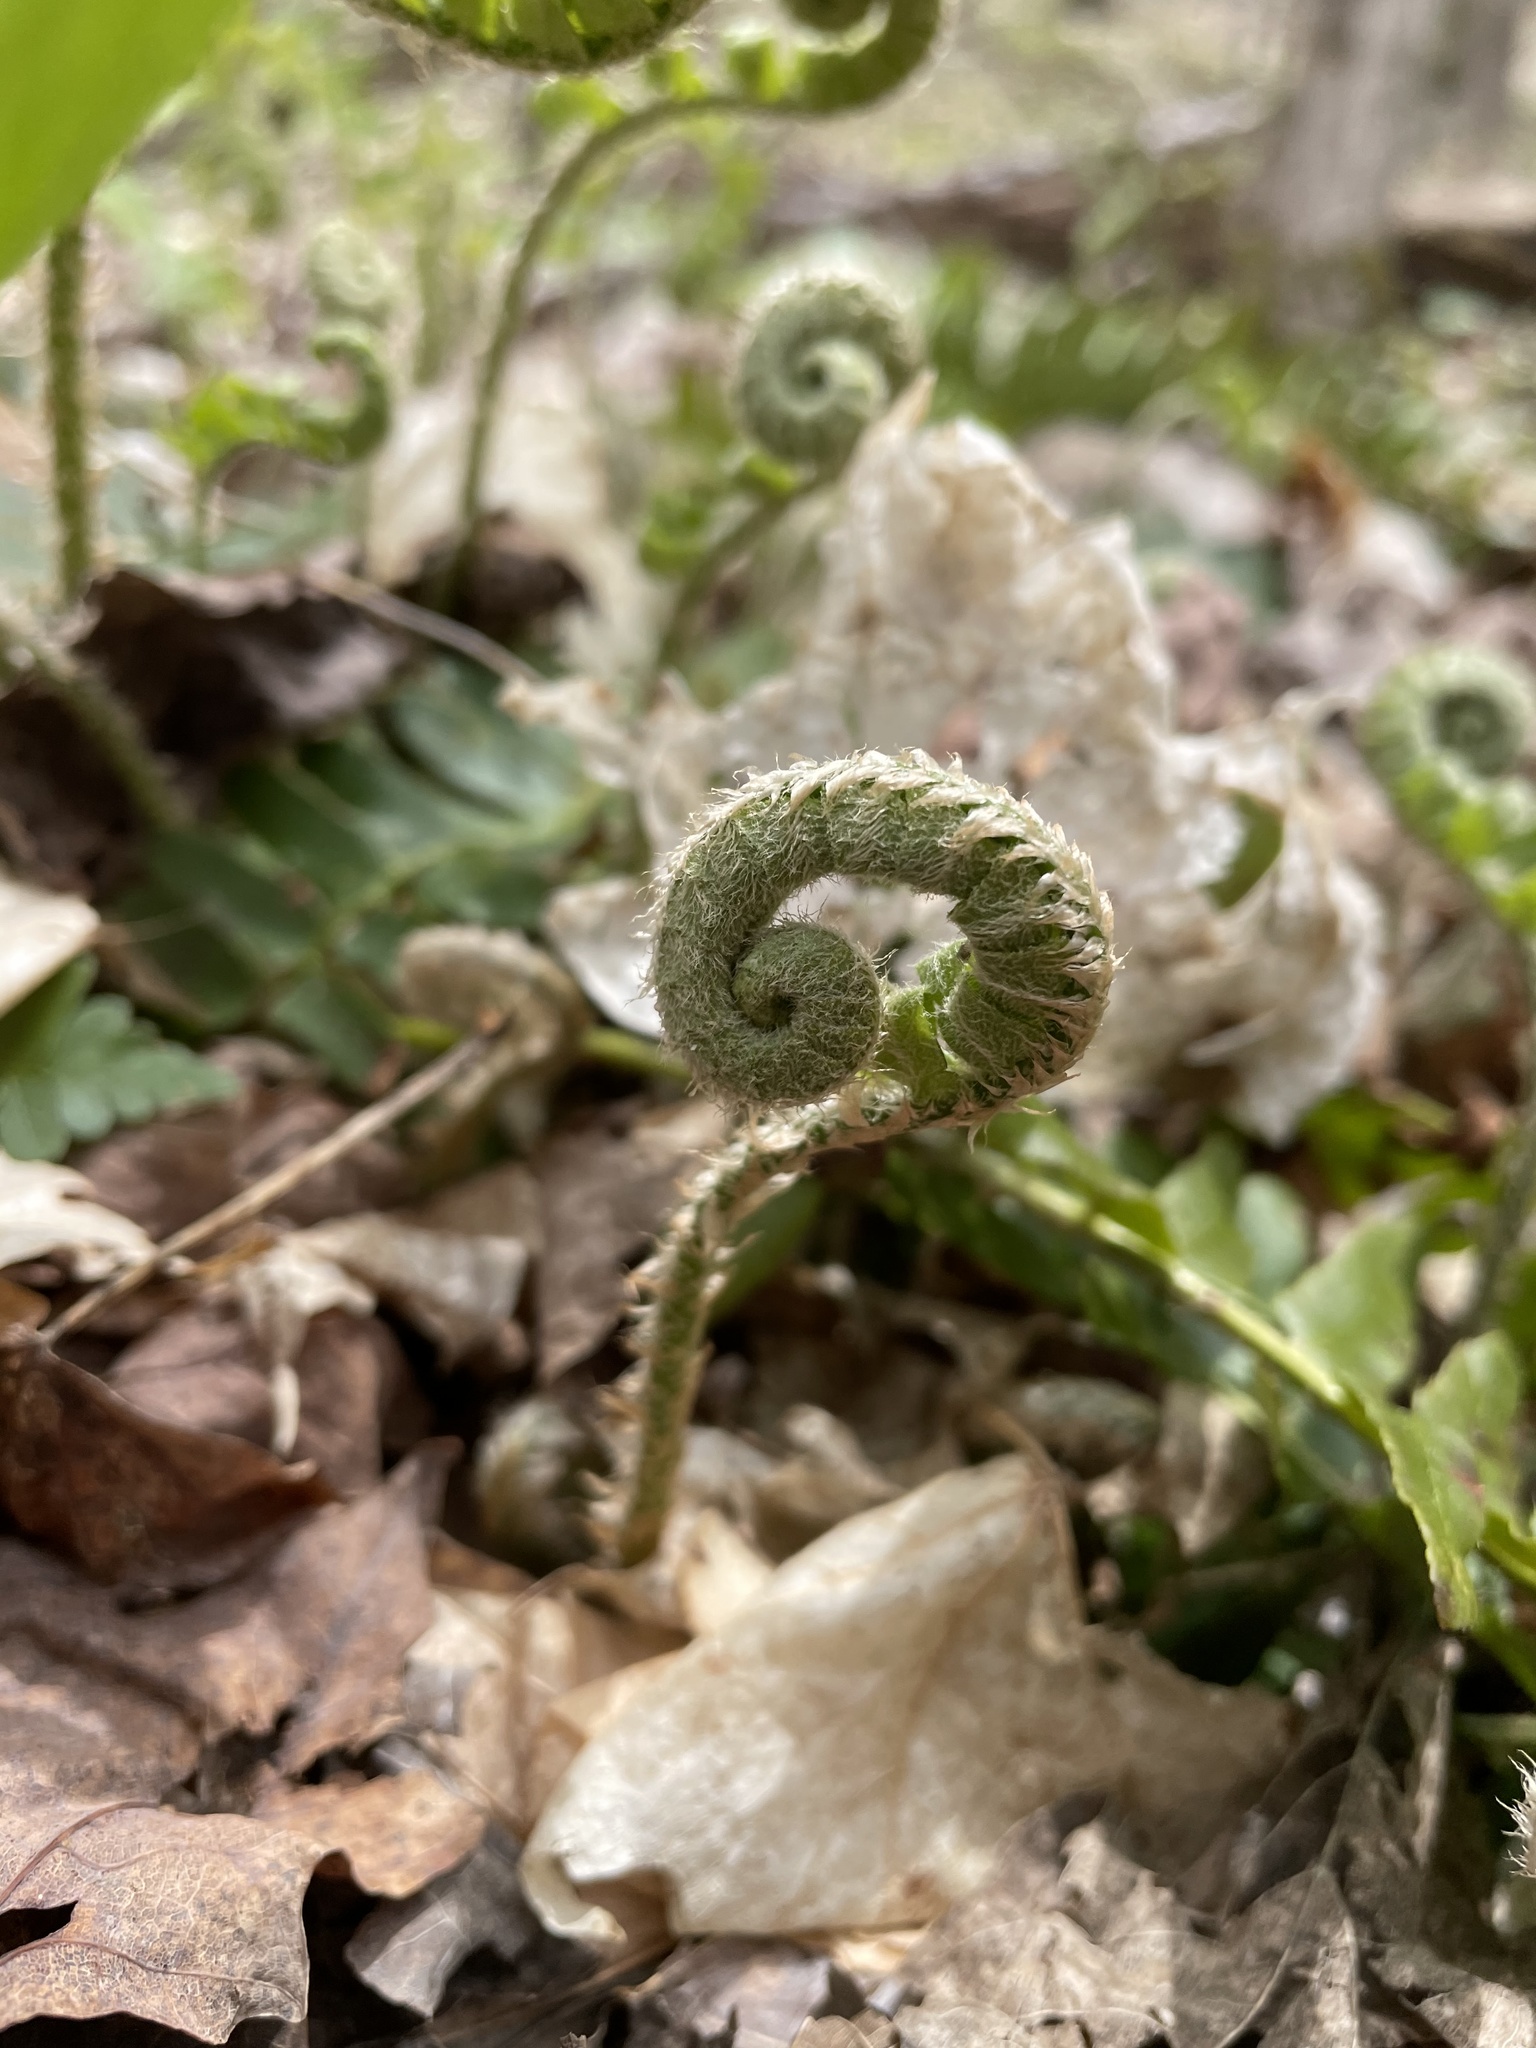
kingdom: Plantae
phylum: Tracheophyta
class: Polypodiopsida
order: Polypodiales
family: Dryopteridaceae
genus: Polystichum
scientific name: Polystichum acrostichoides
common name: Christmas fern
